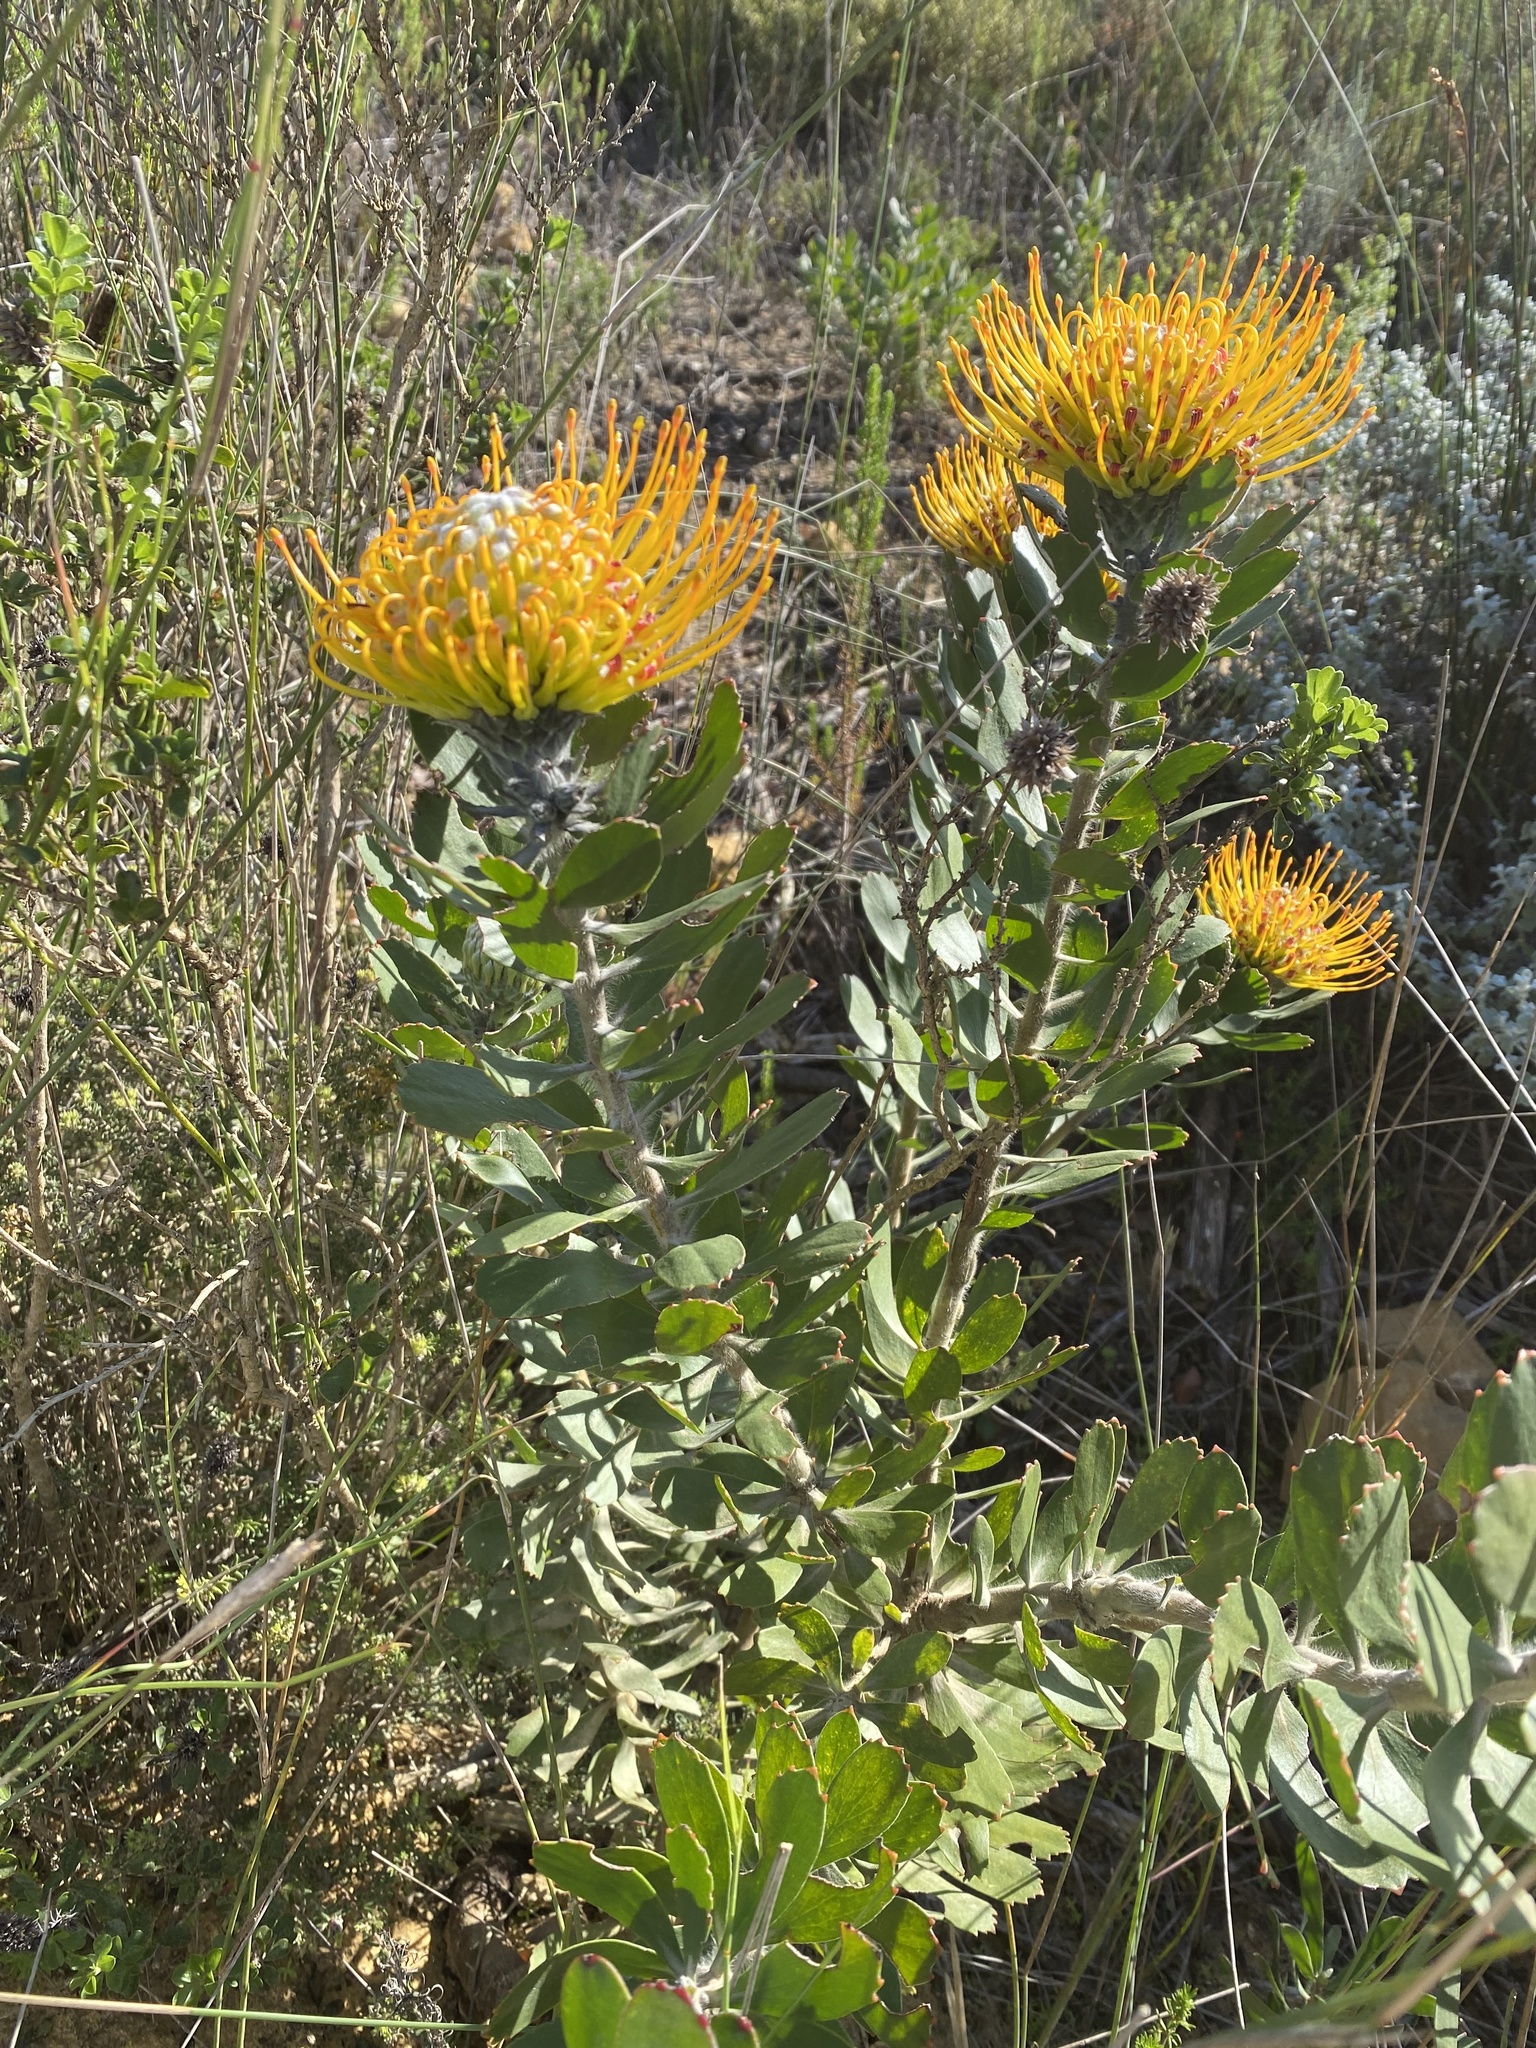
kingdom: Plantae
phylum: Tracheophyta
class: Magnoliopsida
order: Proteales
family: Proteaceae
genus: Leucospermum
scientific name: Leucospermum praecox
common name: Mossel bay pincushion
